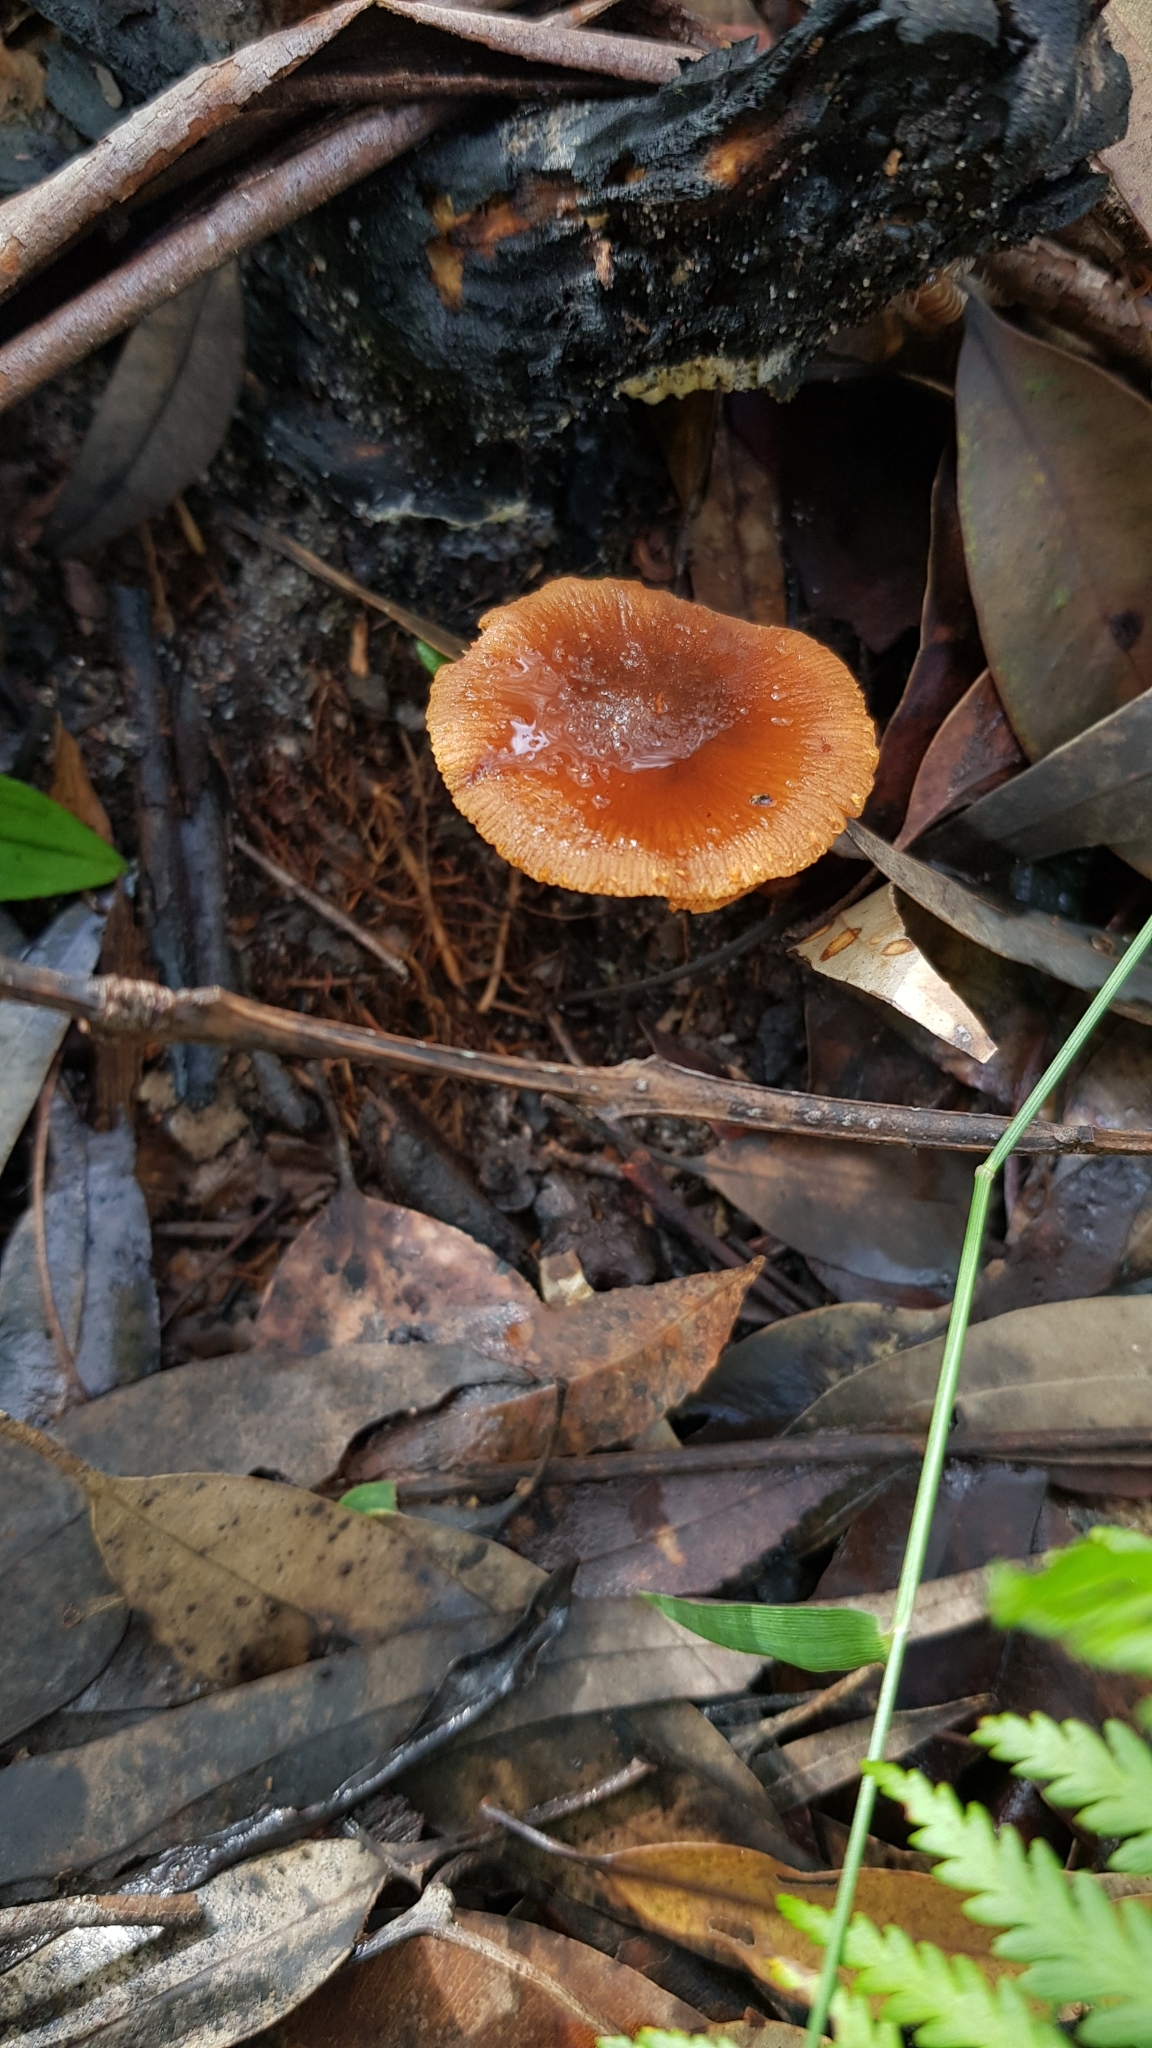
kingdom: Fungi
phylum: Basidiomycota
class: Agaricomycetes
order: Agaricales
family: Bolbitiaceae
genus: Descolea
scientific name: Descolea recedens
